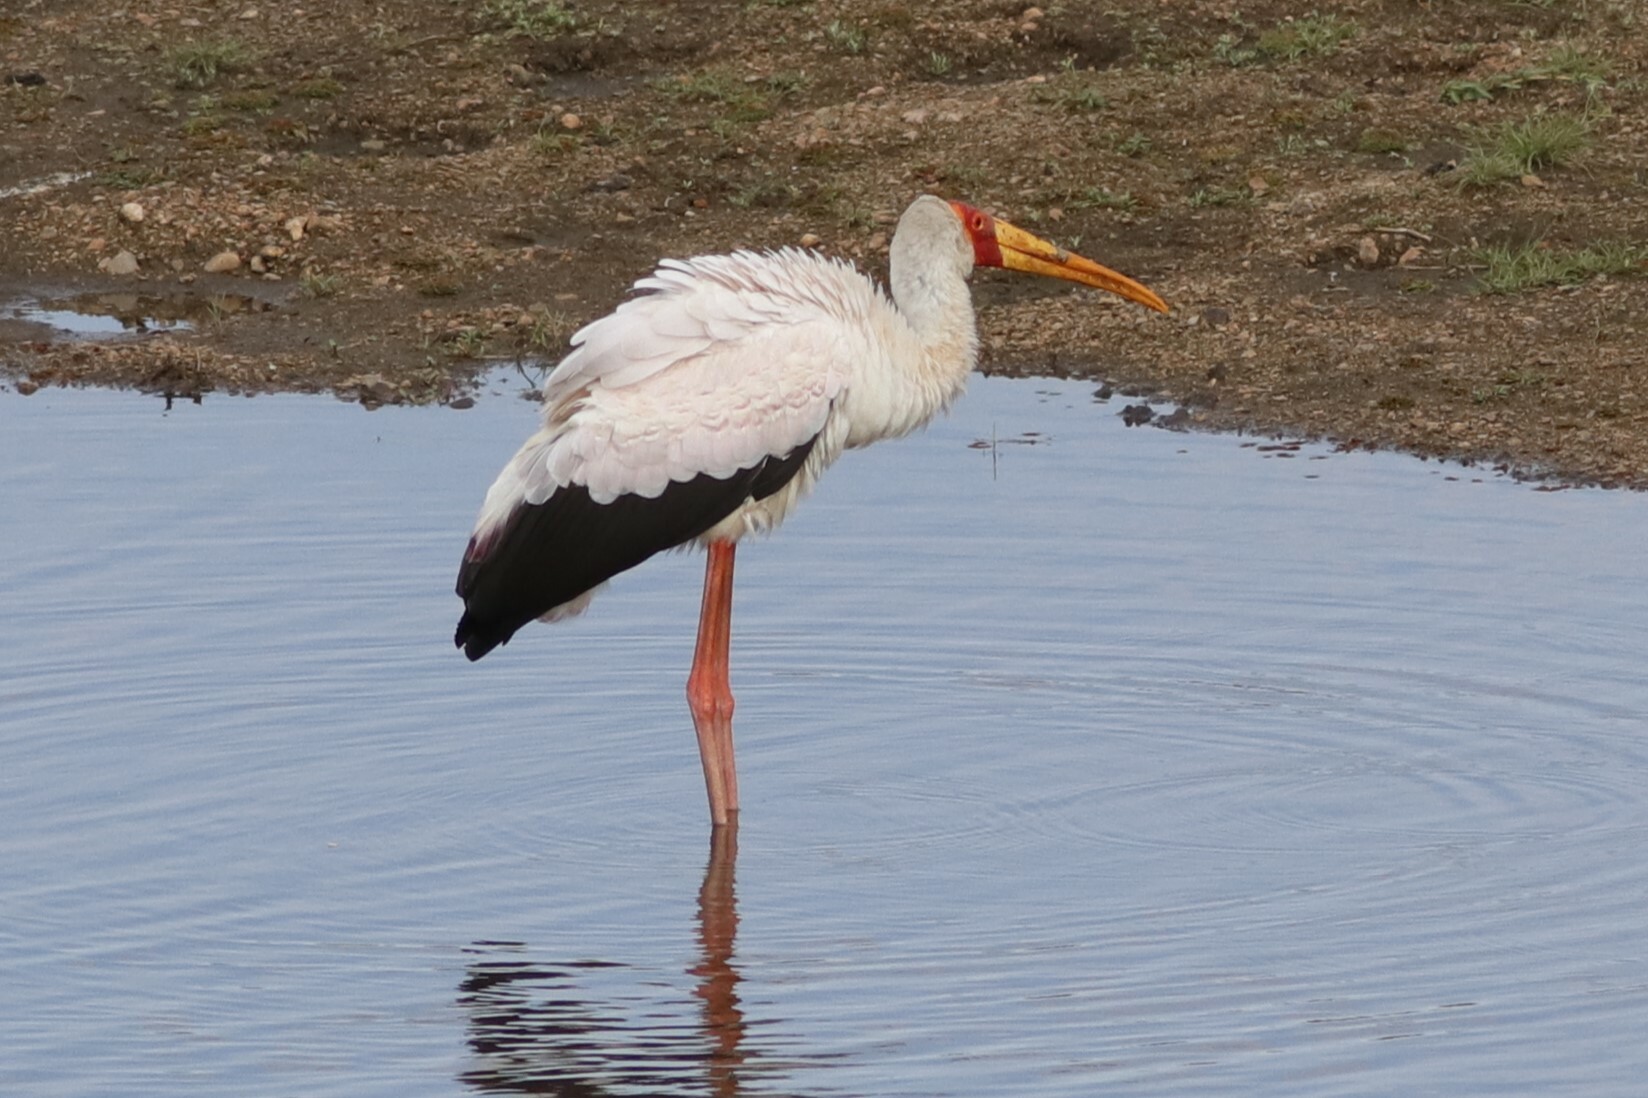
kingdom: Animalia
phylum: Chordata
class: Aves
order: Ciconiiformes
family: Ciconiidae
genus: Mycteria
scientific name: Mycteria ibis
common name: Yellow-billed stork
